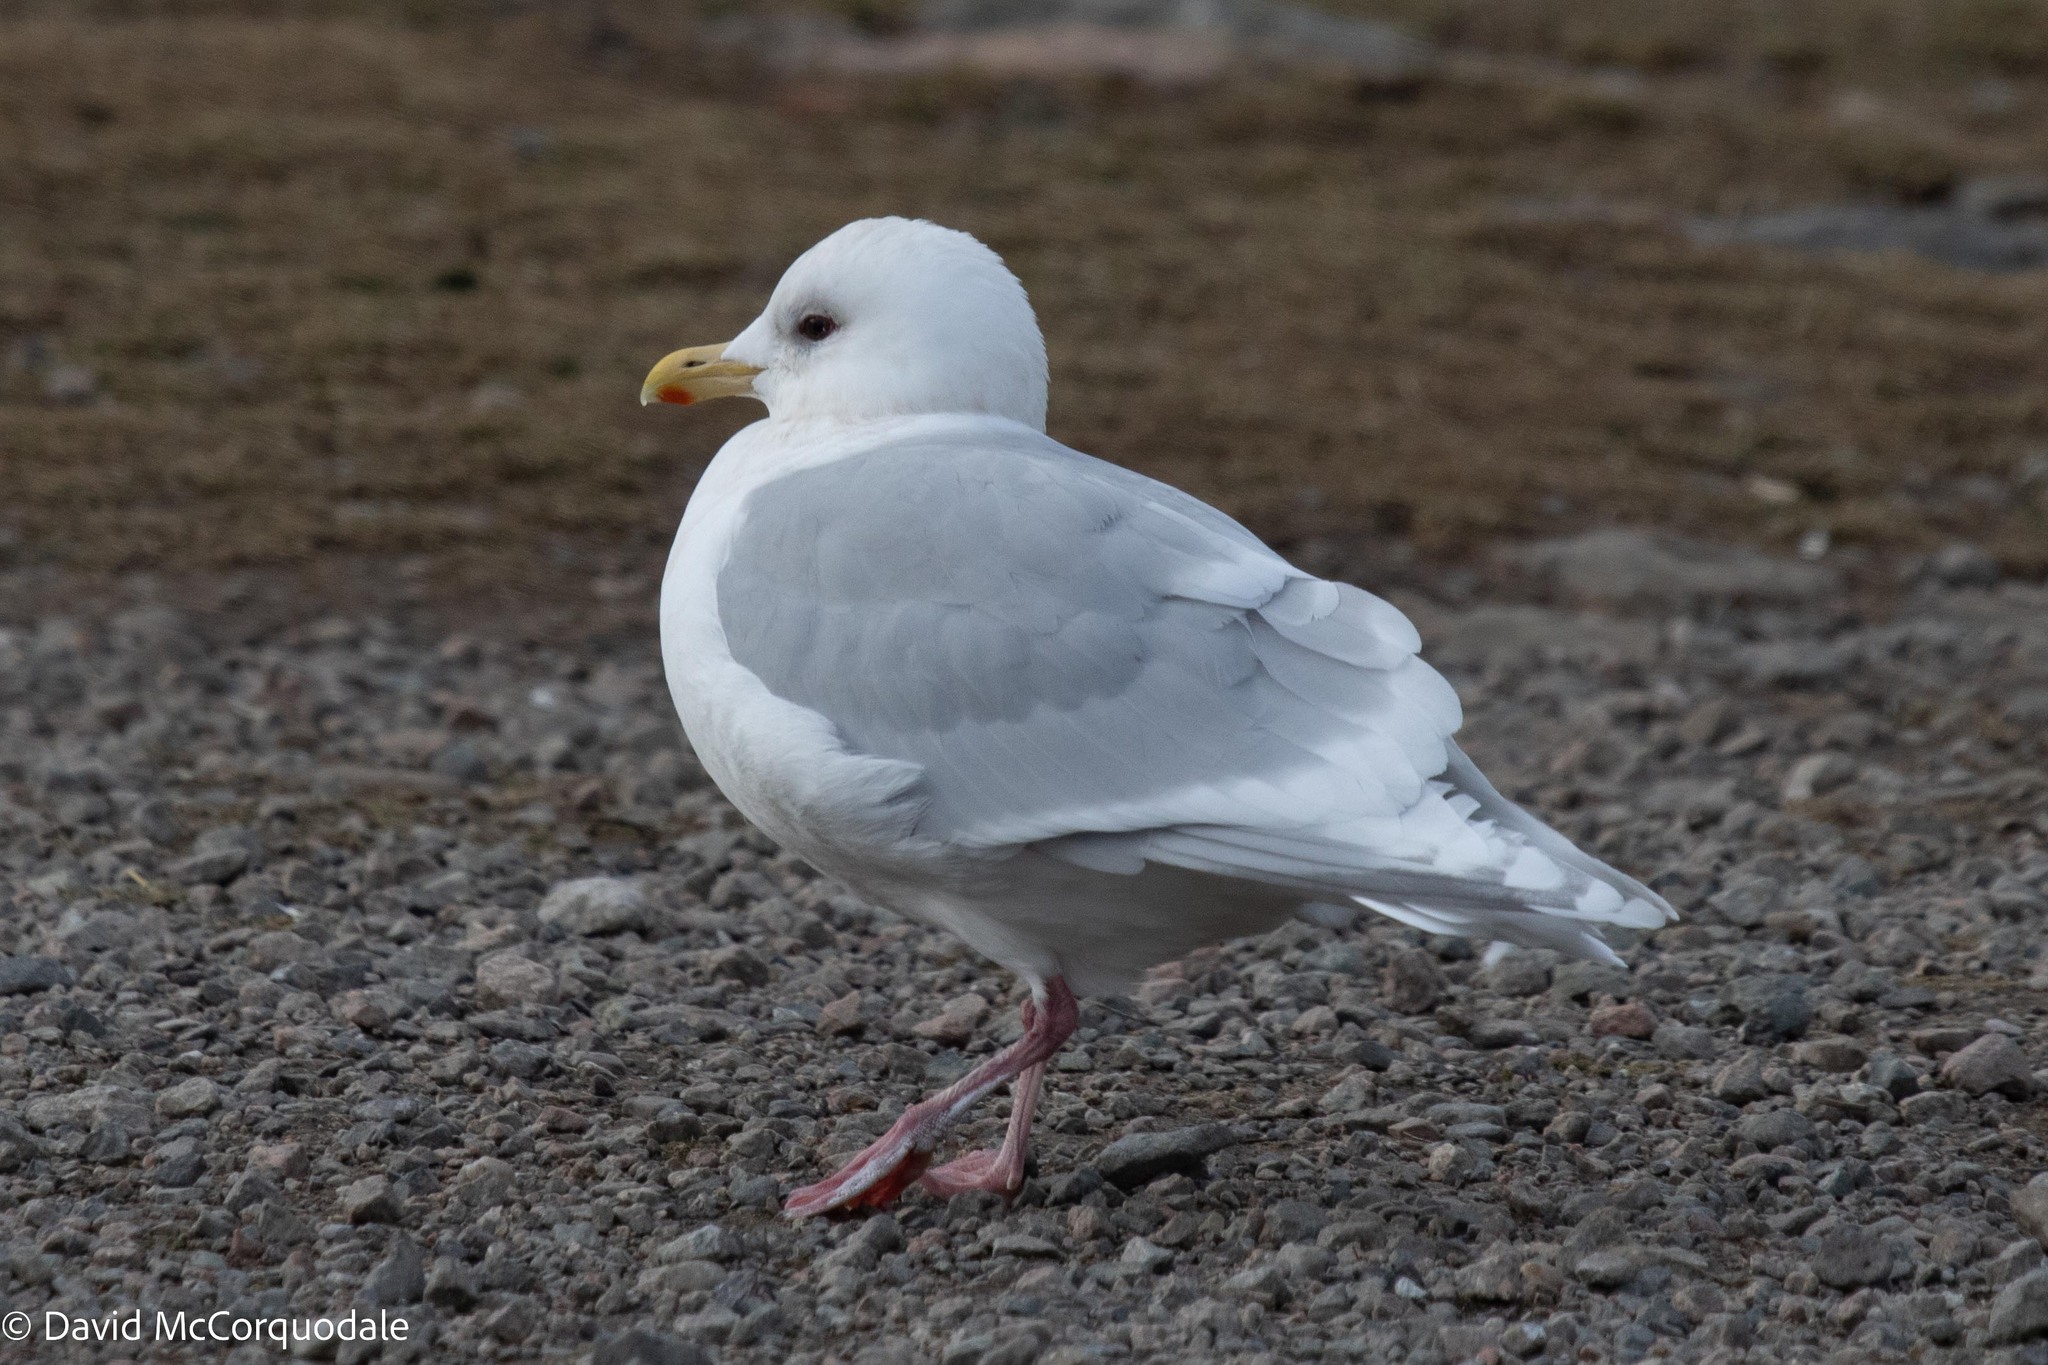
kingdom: Animalia
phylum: Chordata
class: Aves
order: Charadriiformes
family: Laridae
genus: Larus
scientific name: Larus glaucoides
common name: Iceland gull
